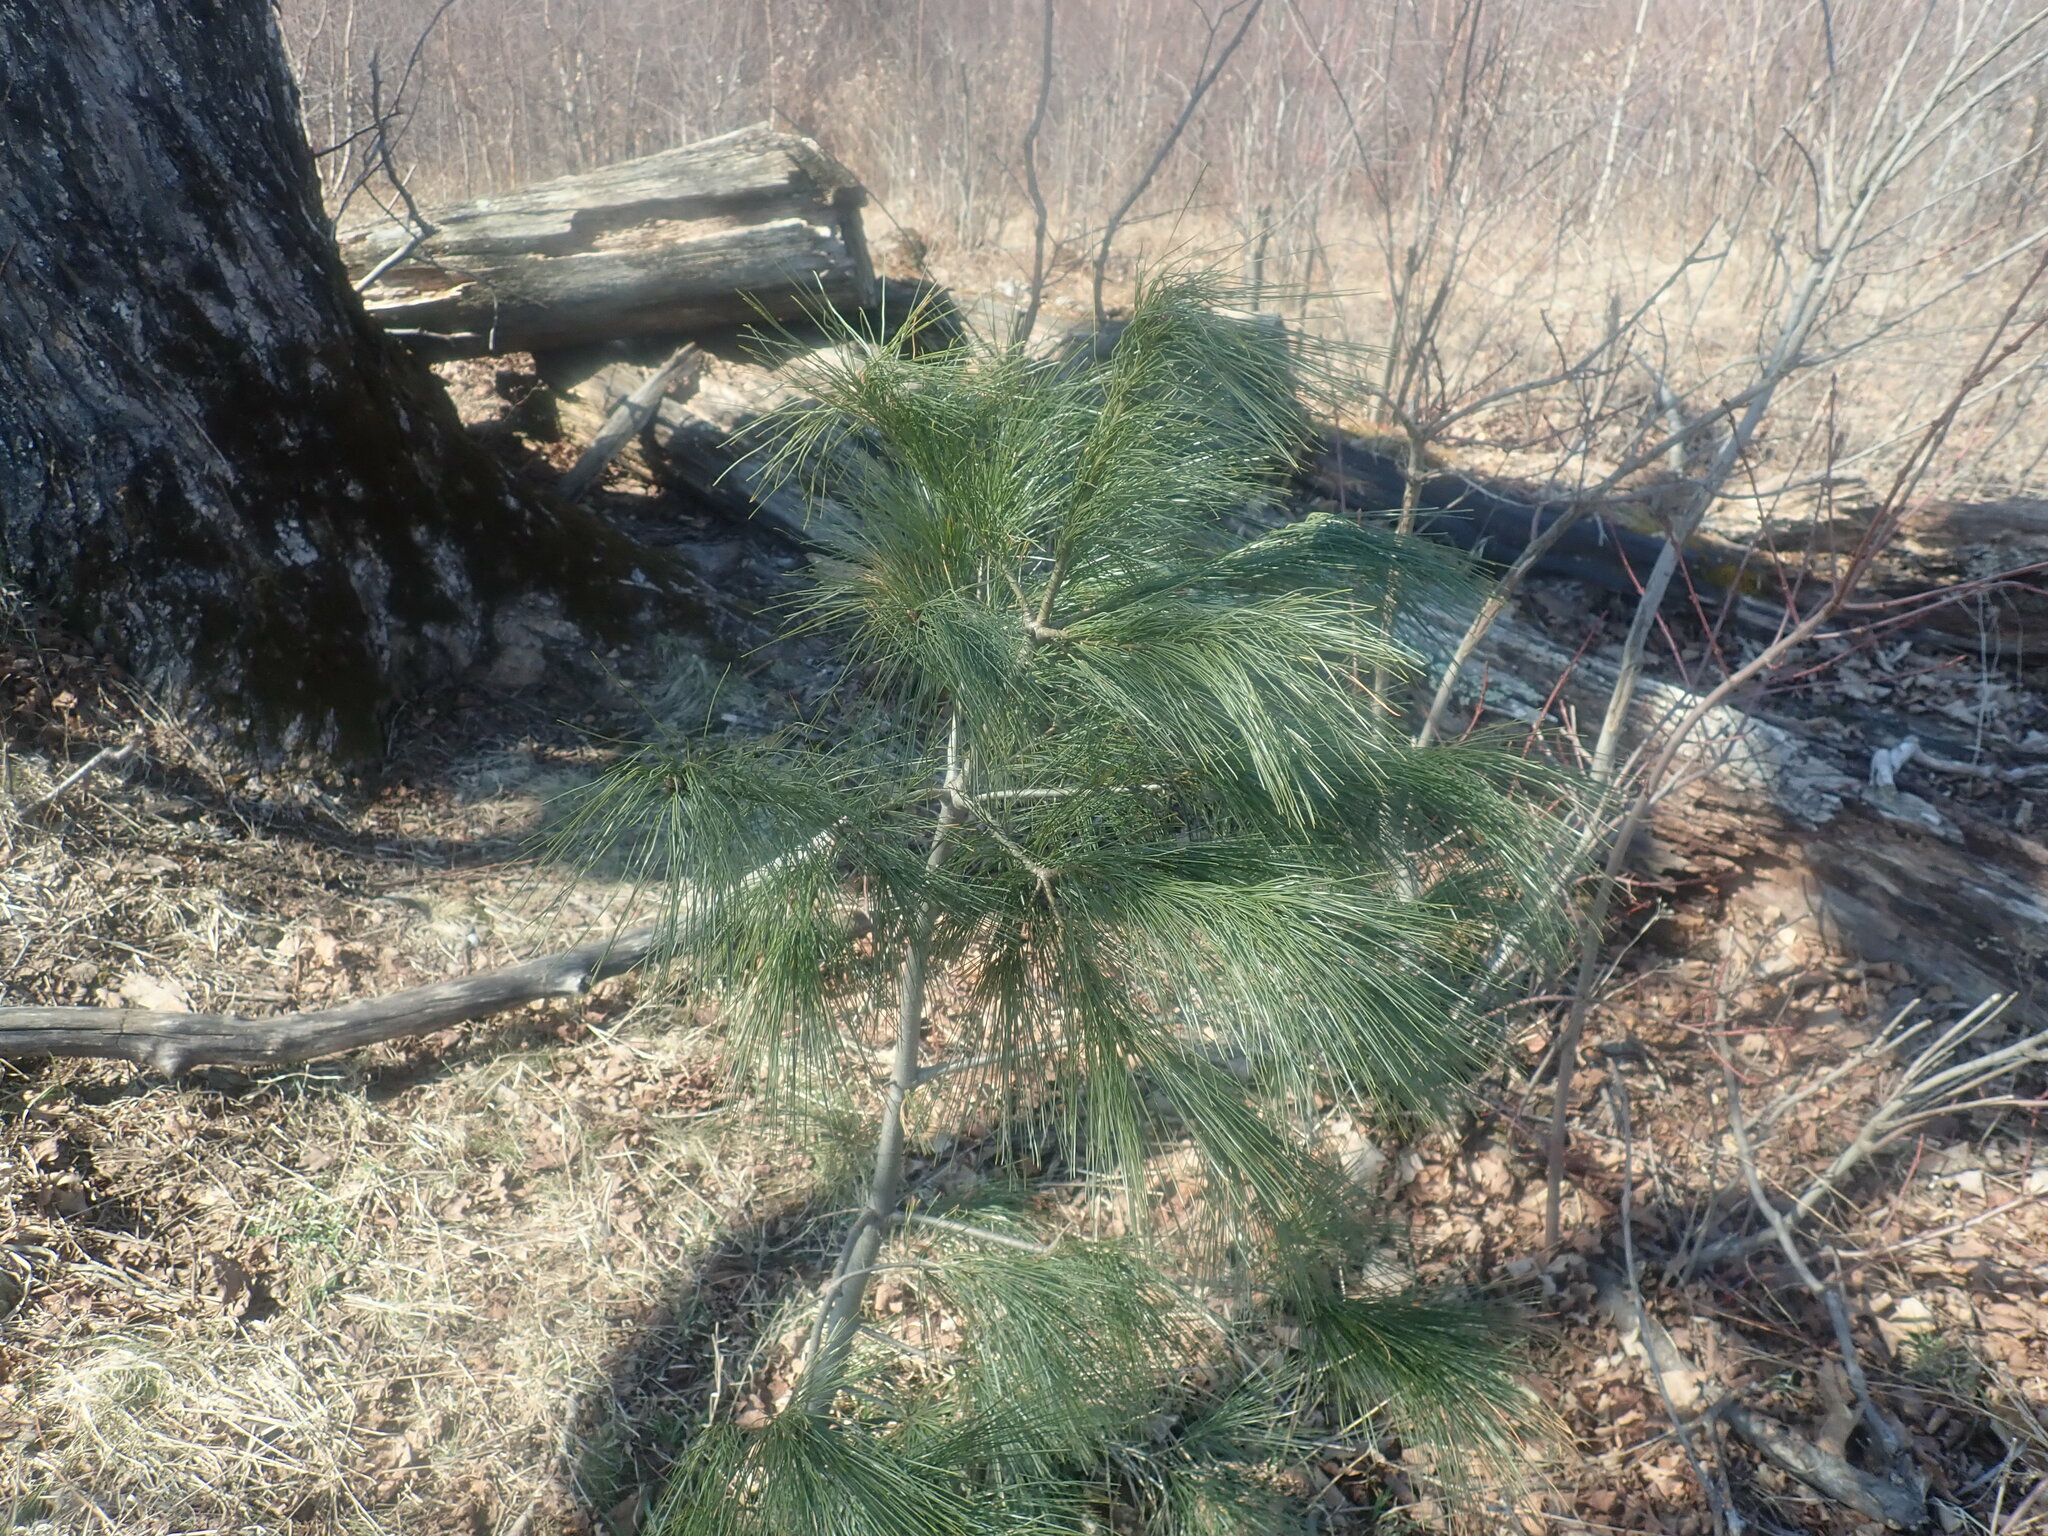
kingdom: Plantae
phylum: Tracheophyta
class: Pinopsida
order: Pinales
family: Pinaceae
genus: Pinus
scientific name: Pinus strobus
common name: Weymouth pine
